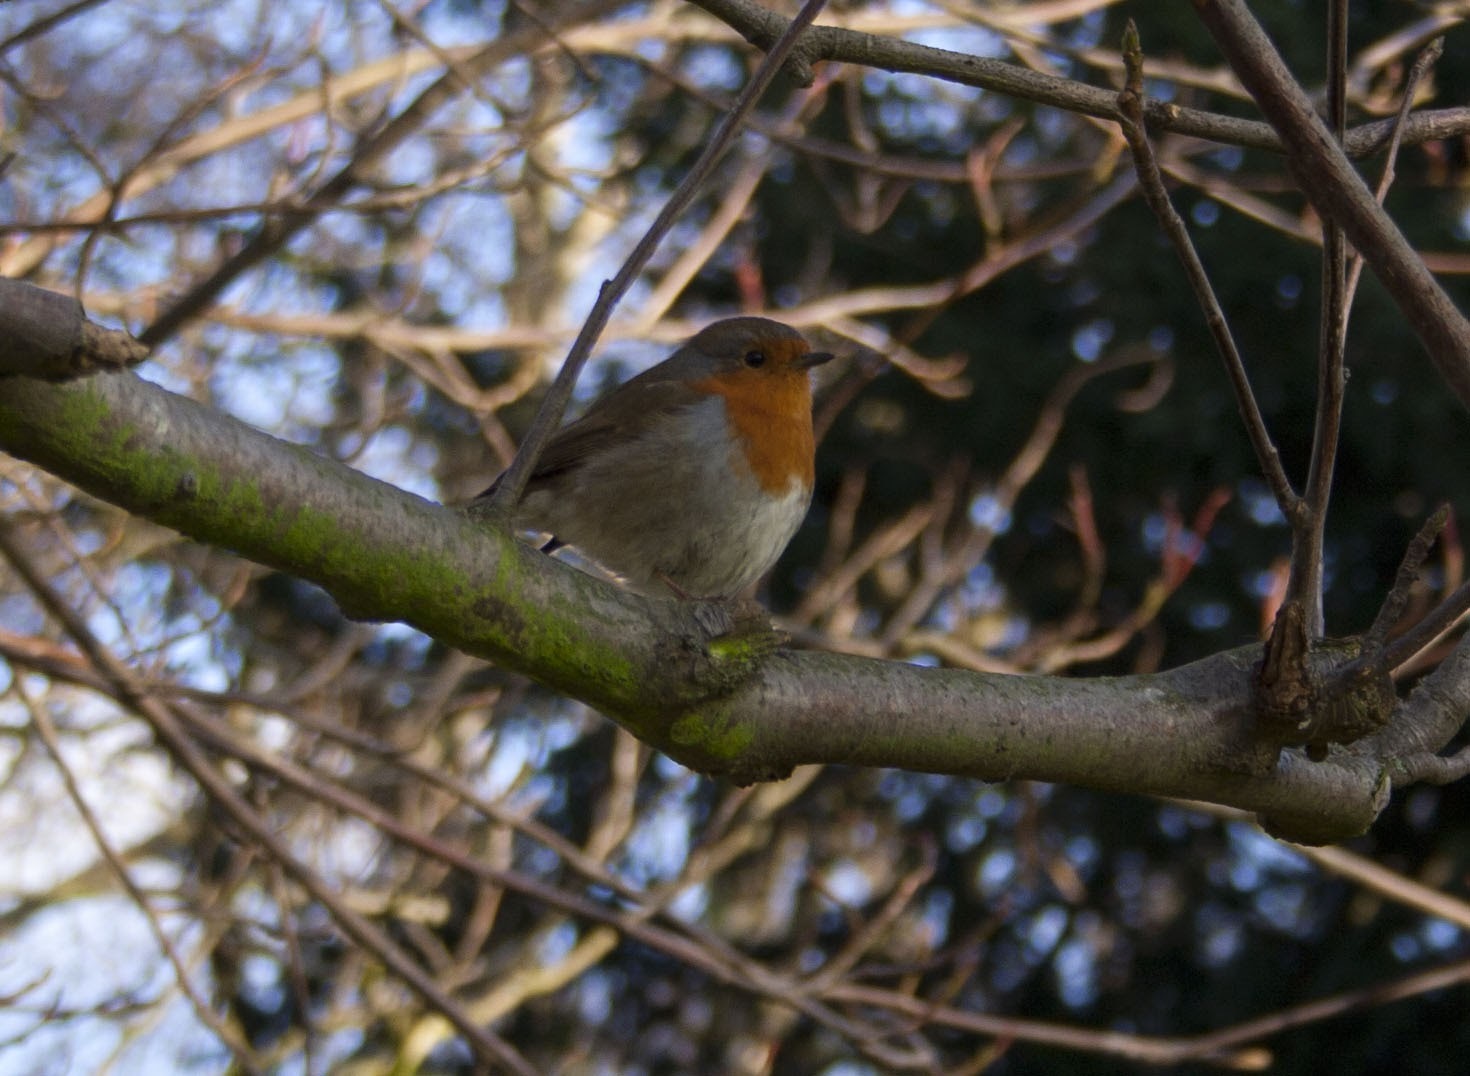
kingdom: Animalia
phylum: Chordata
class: Aves
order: Passeriformes
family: Muscicapidae
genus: Erithacus
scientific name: Erithacus rubecula
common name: European robin
